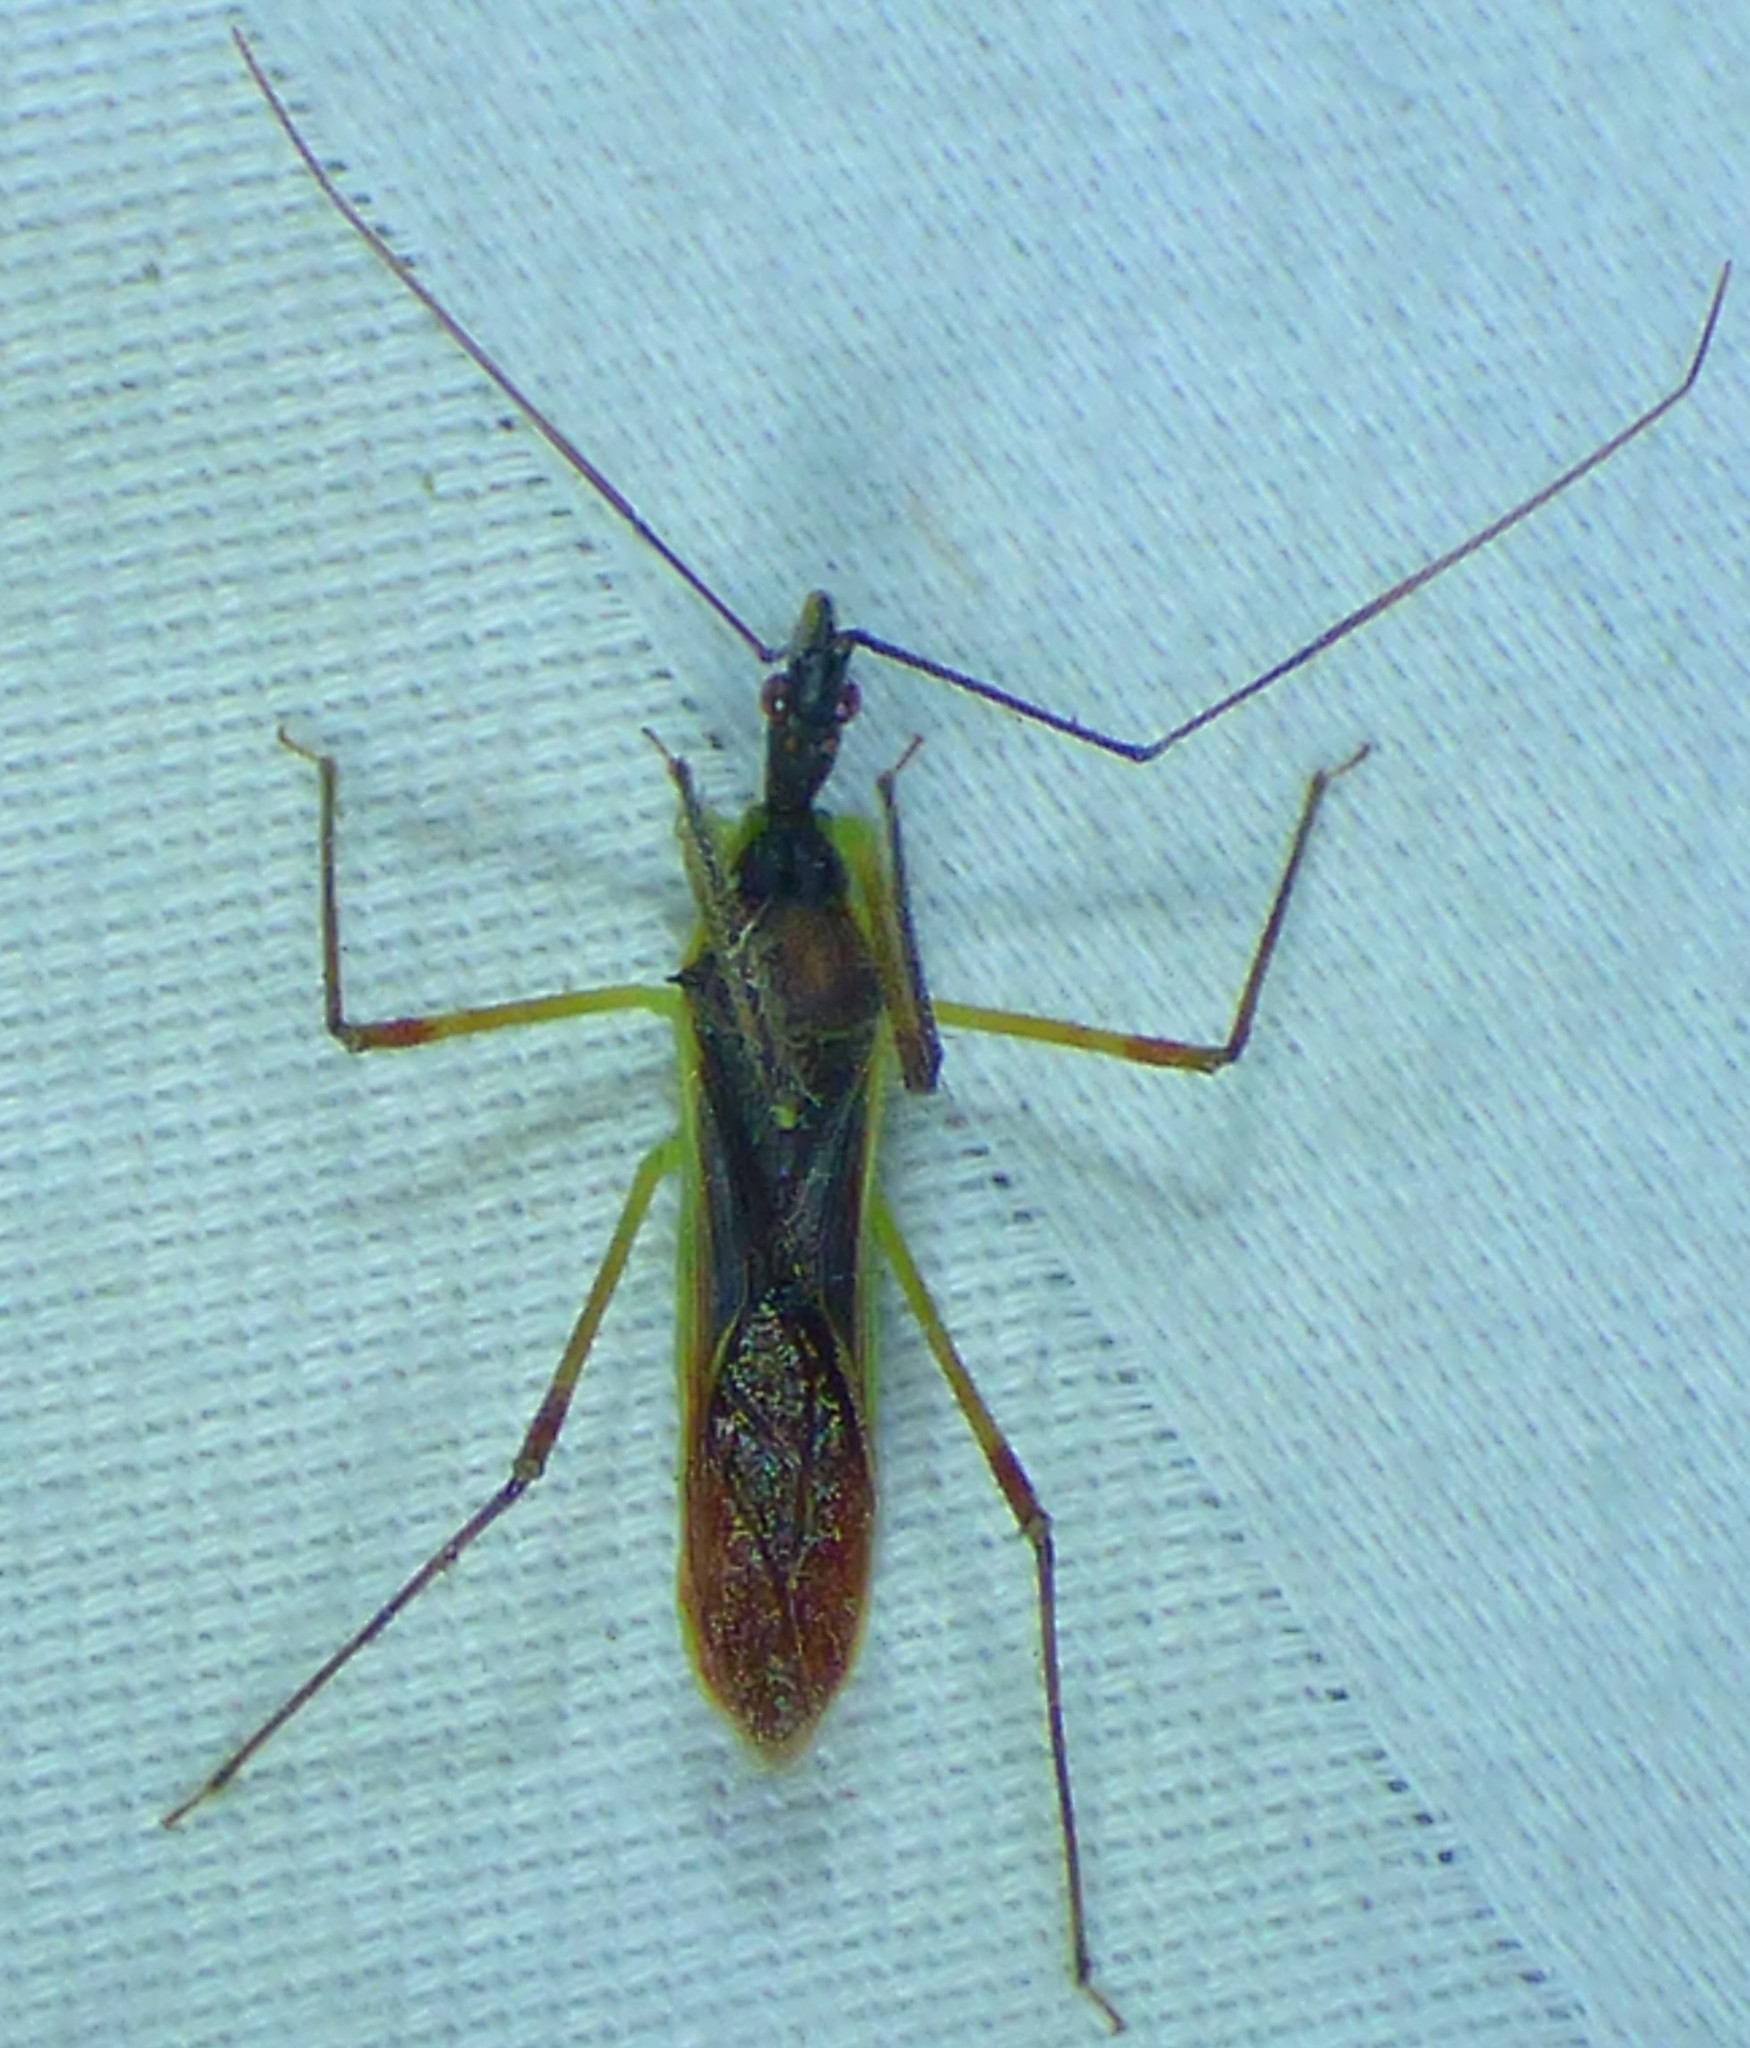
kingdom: Animalia
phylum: Arthropoda
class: Insecta
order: Hemiptera
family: Reduviidae
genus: Zelus
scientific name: Zelus luridus
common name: Pale green assassin bug
